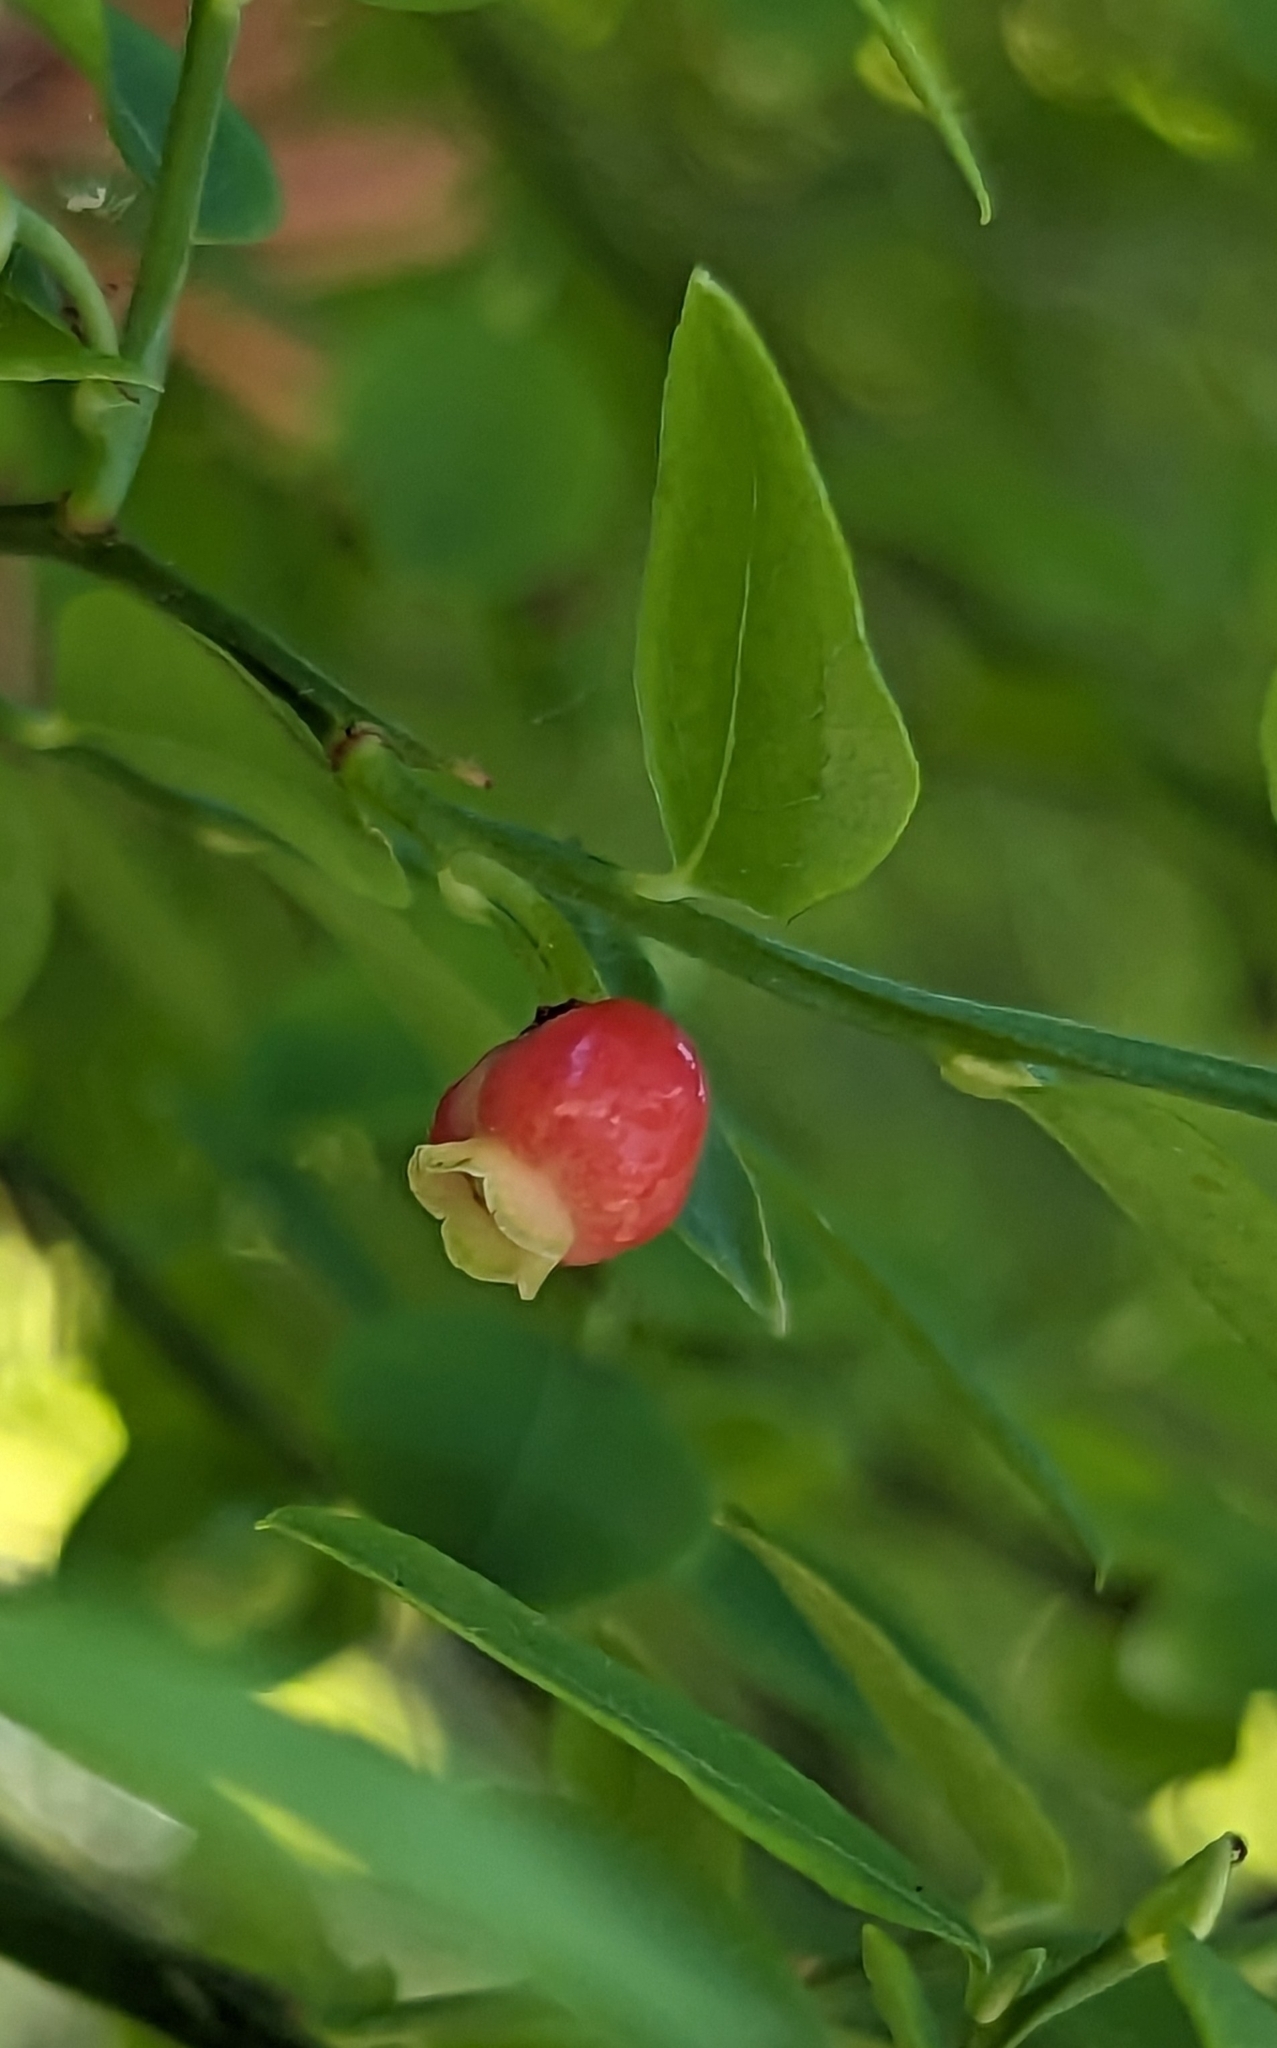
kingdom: Plantae
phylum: Tracheophyta
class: Magnoliopsida
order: Ericales
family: Ericaceae
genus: Vaccinium
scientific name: Vaccinium parvifolium
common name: Red-huckleberry
